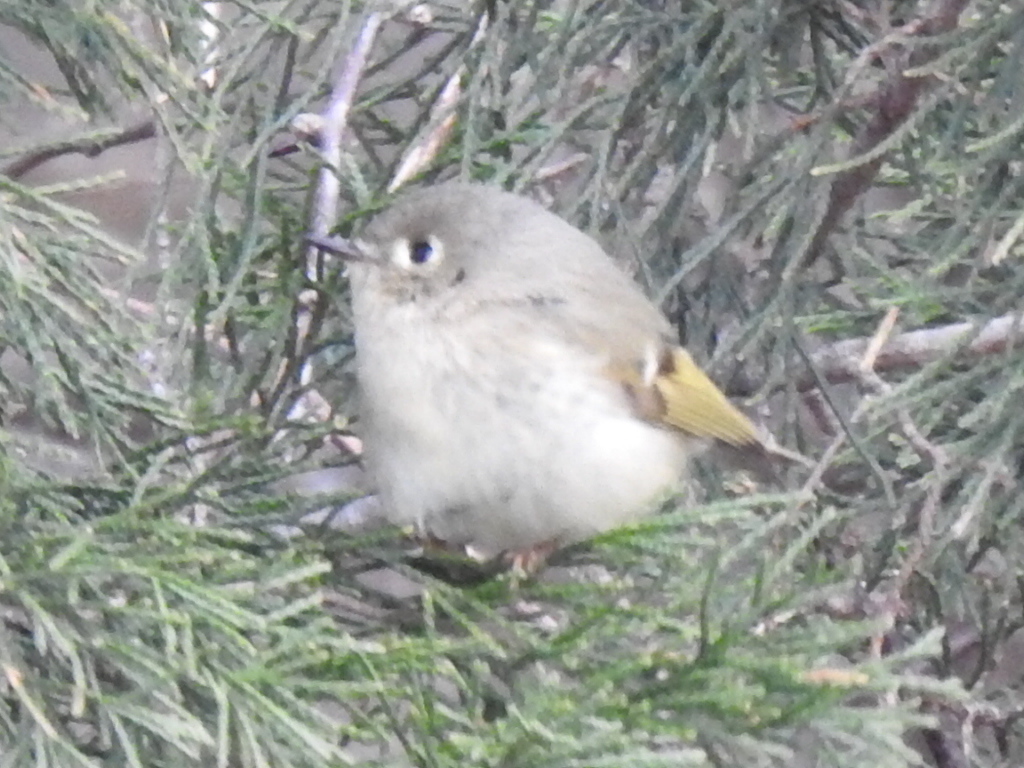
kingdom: Animalia
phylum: Chordata
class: Aves
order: Passeriformes
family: Regulidae
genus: Regulus
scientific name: Regulus calendula
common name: Ruby-crowned kinglet
